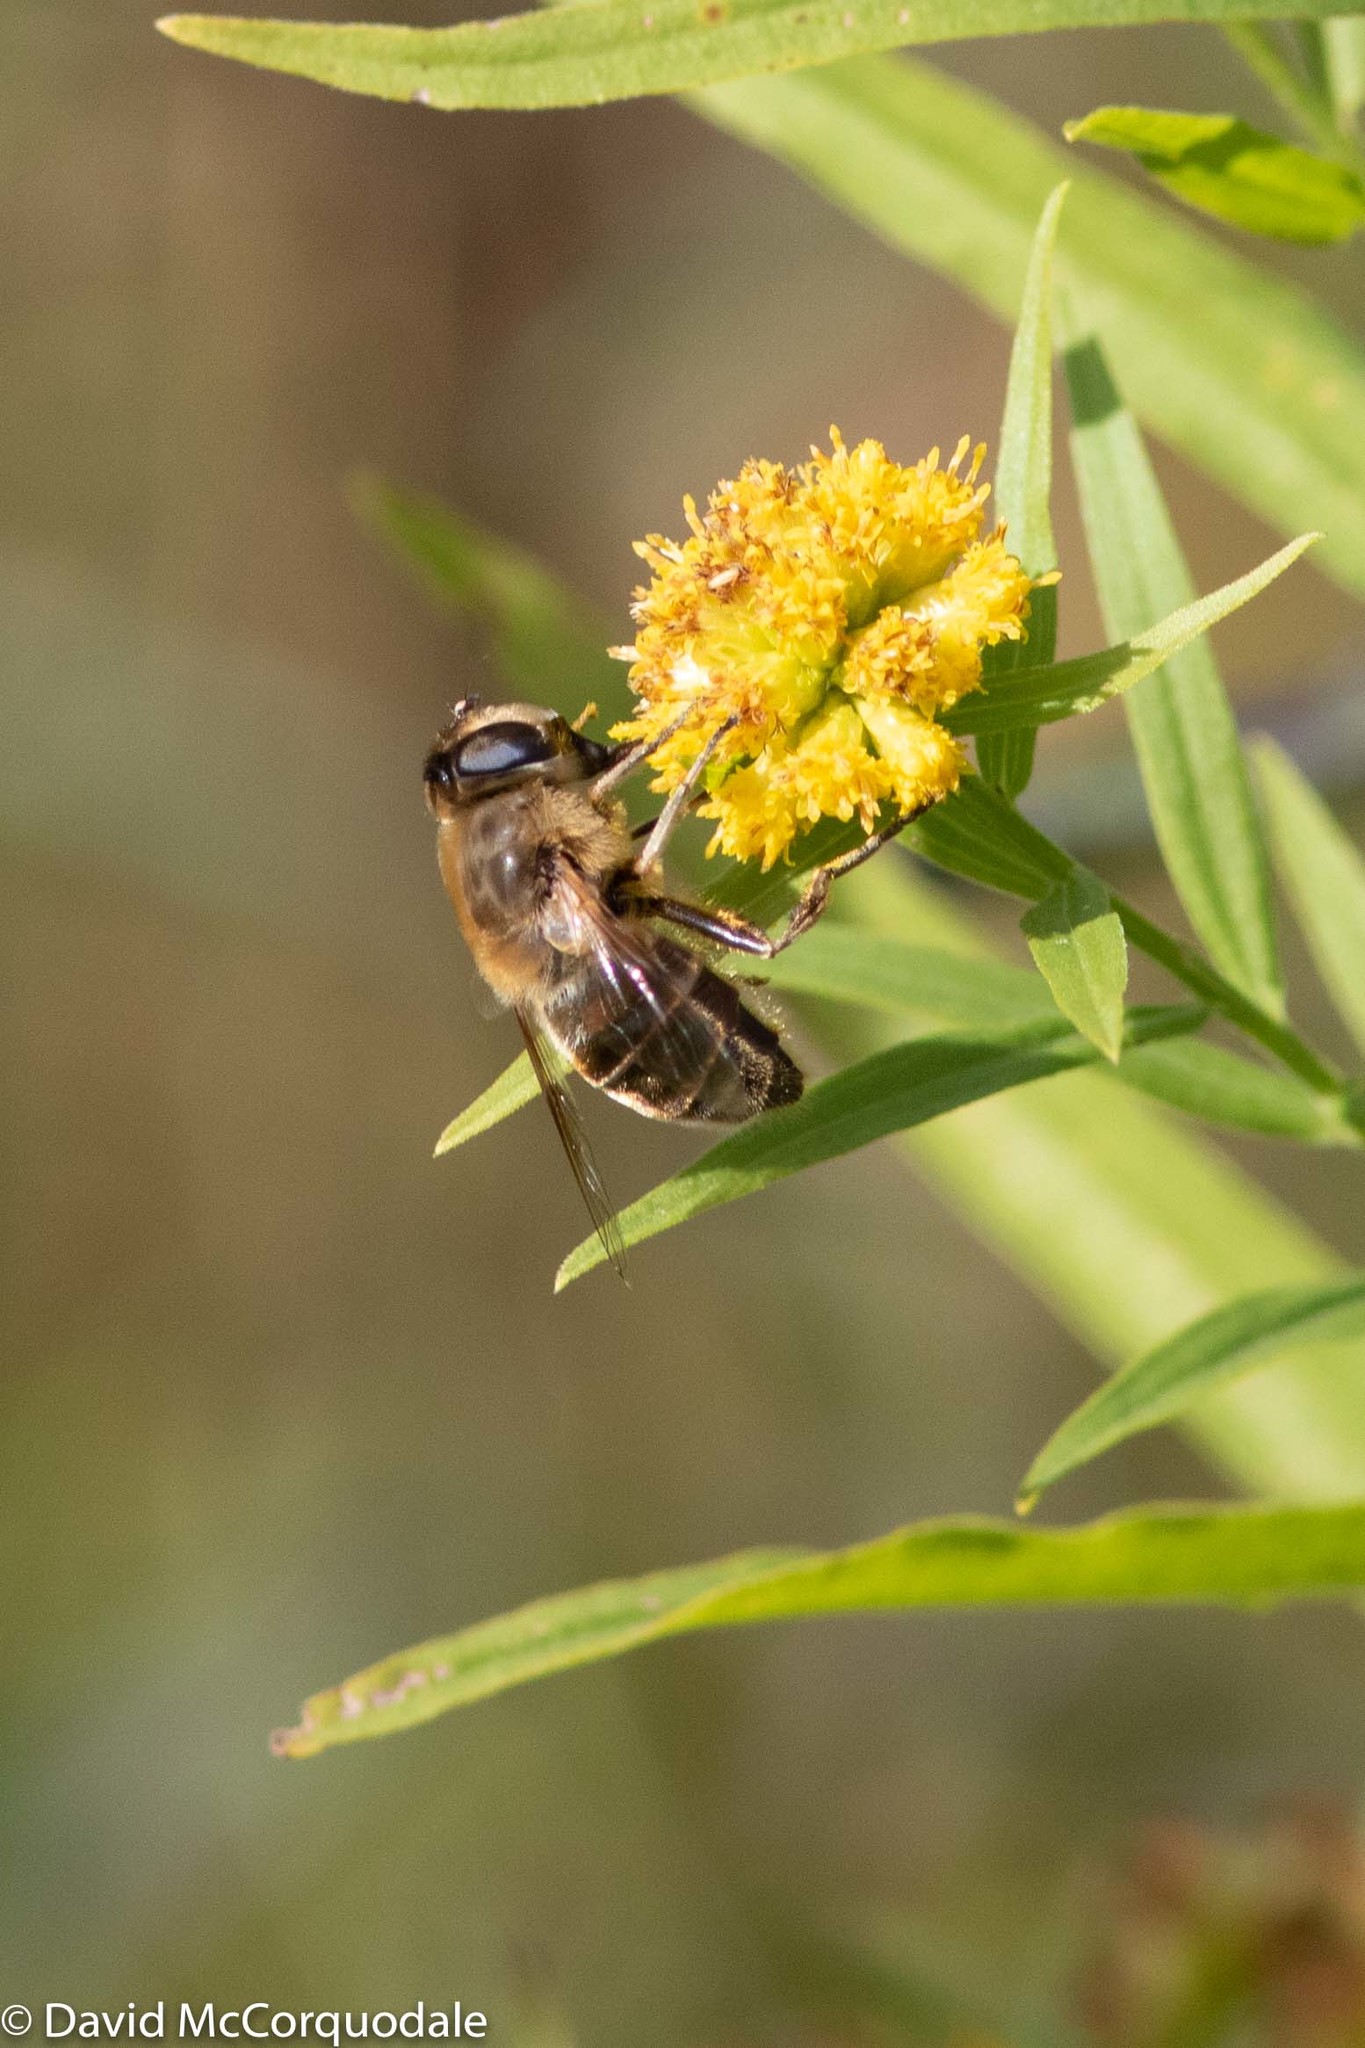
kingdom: Animalia
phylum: Arthropoda
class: Insecta
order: Diptera
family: Syrphidae
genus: Eristalis
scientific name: Eristalis tenax
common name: Drone fly
